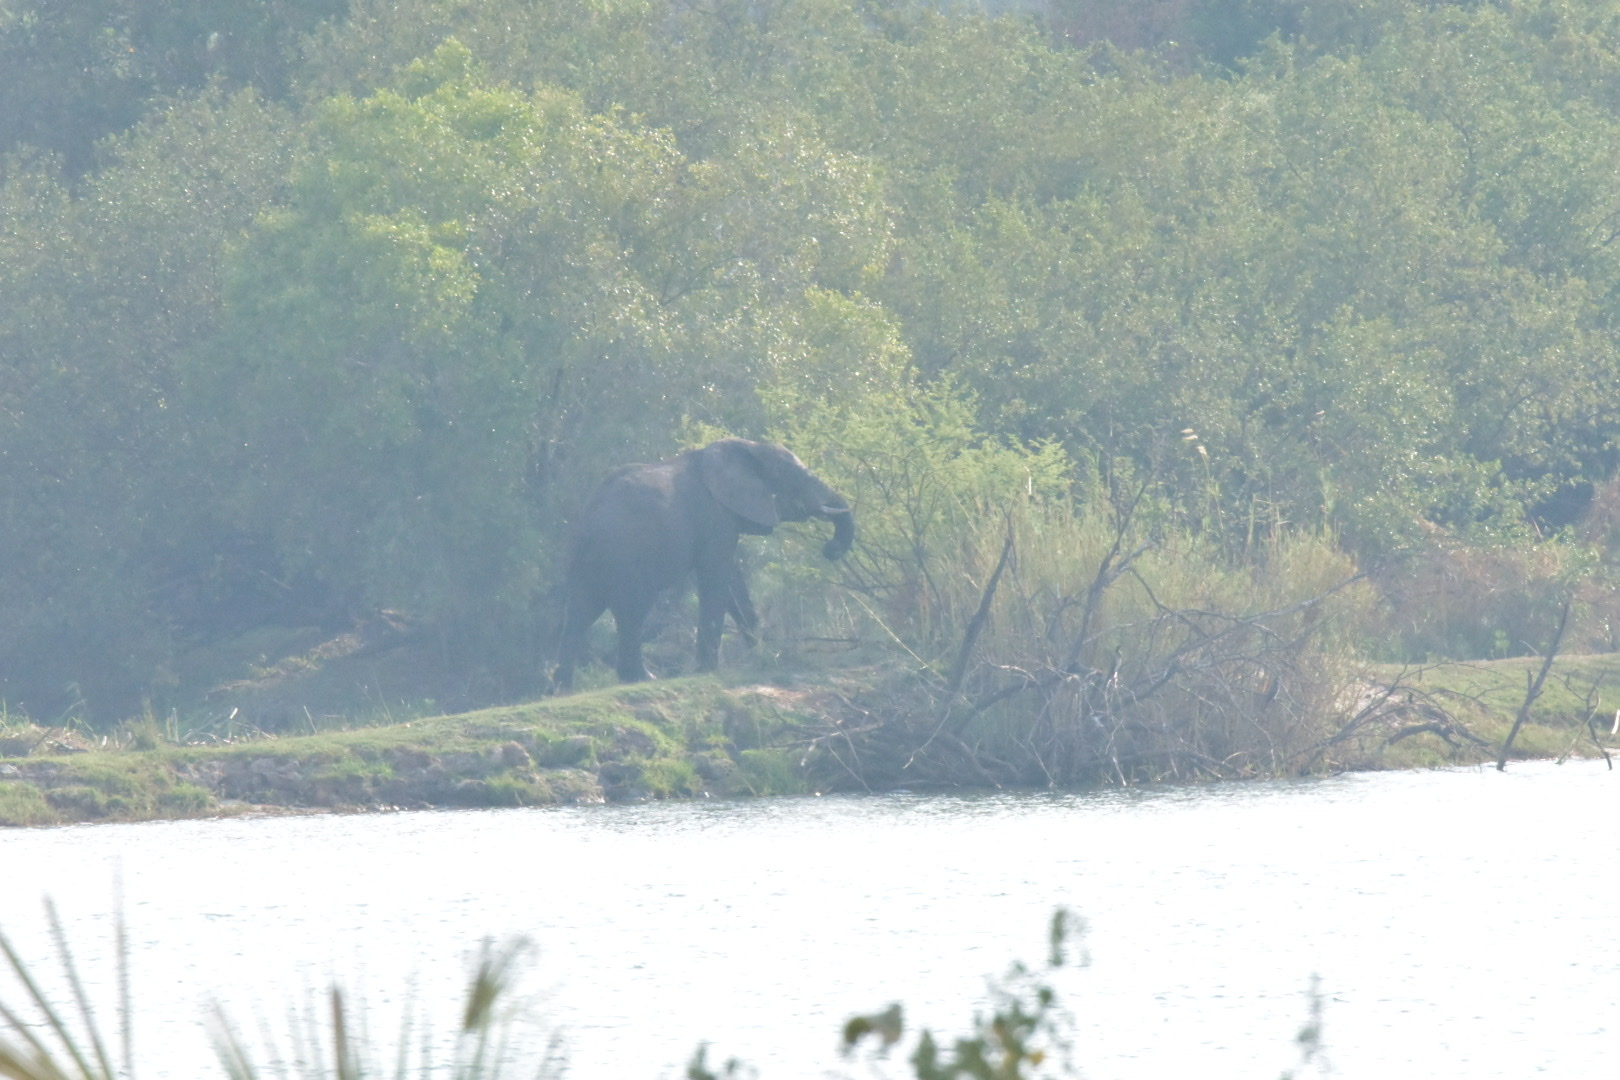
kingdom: Animalia
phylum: Chordata
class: Mammalia
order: Proboscidea
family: Elephantidae
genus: Loxodonta
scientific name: Loxodonta africana
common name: African elephant
